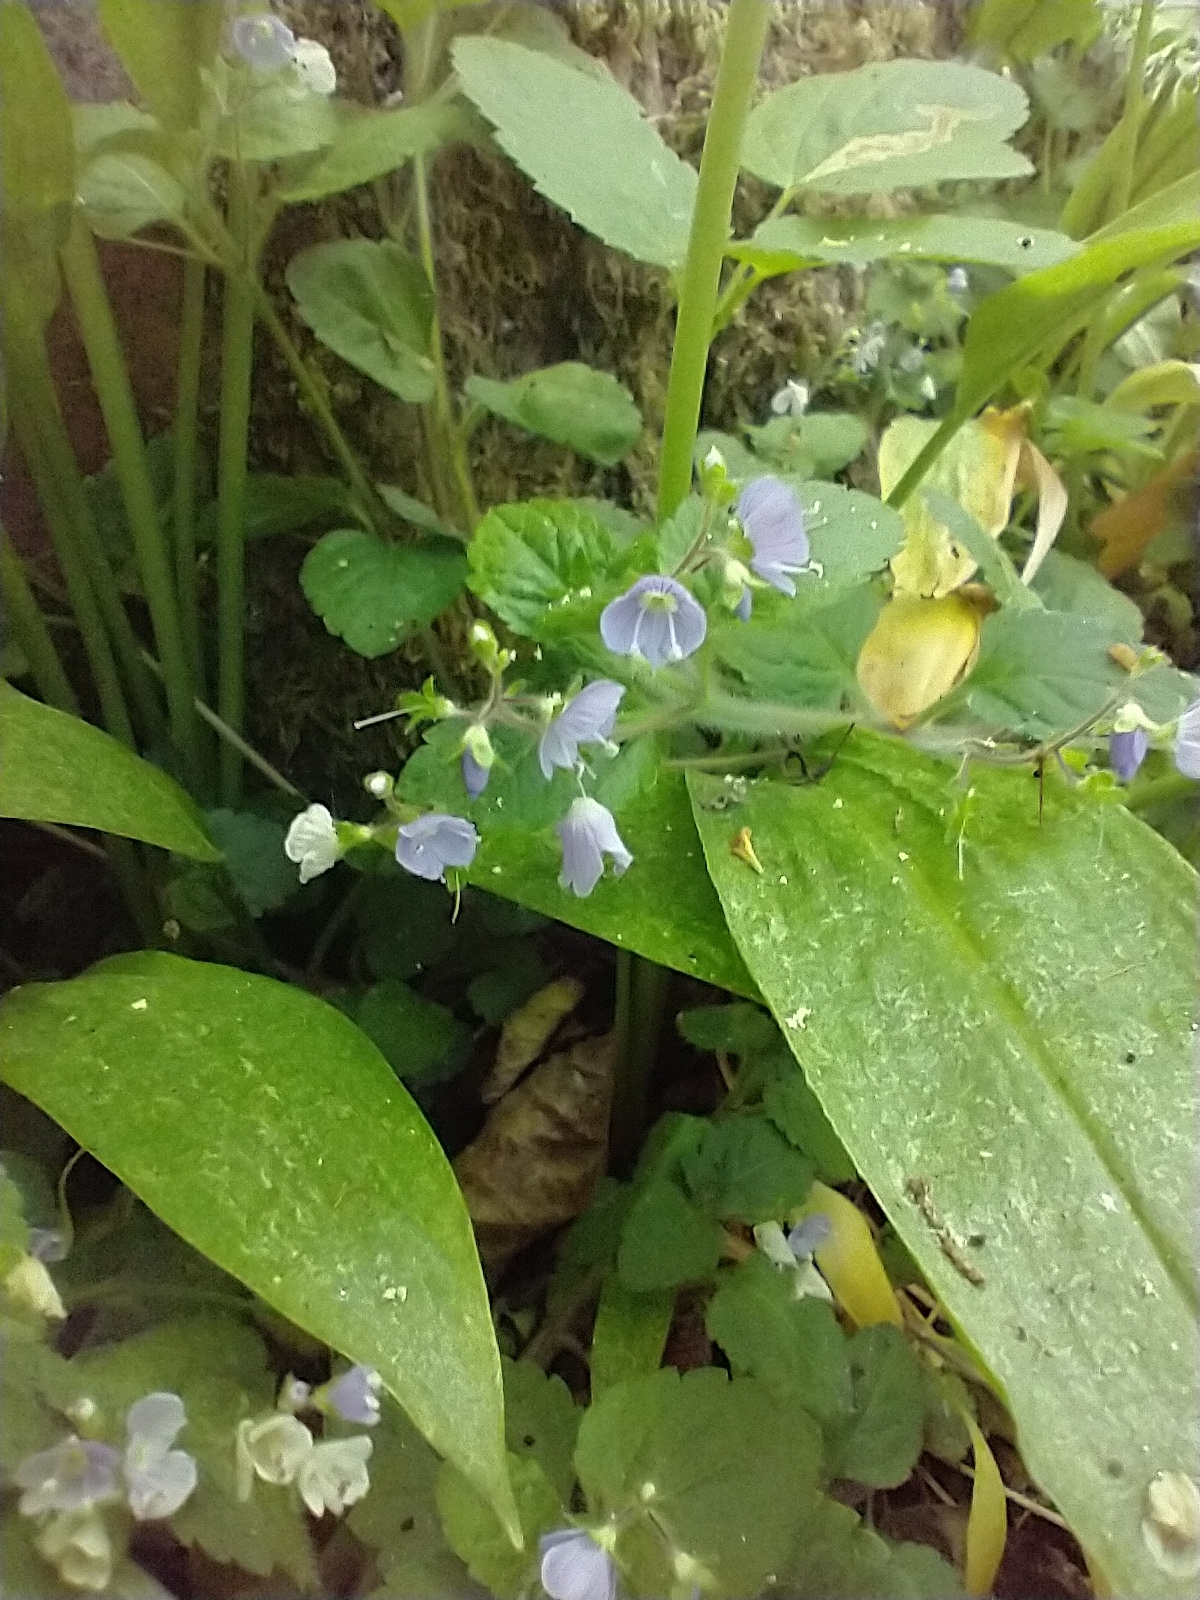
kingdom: Plantae
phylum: Tracheophyta
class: Magnoliopsida
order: Lamiales
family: Plantaginaceae
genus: Veronica
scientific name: Veronica montana
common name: Wood speedwell
